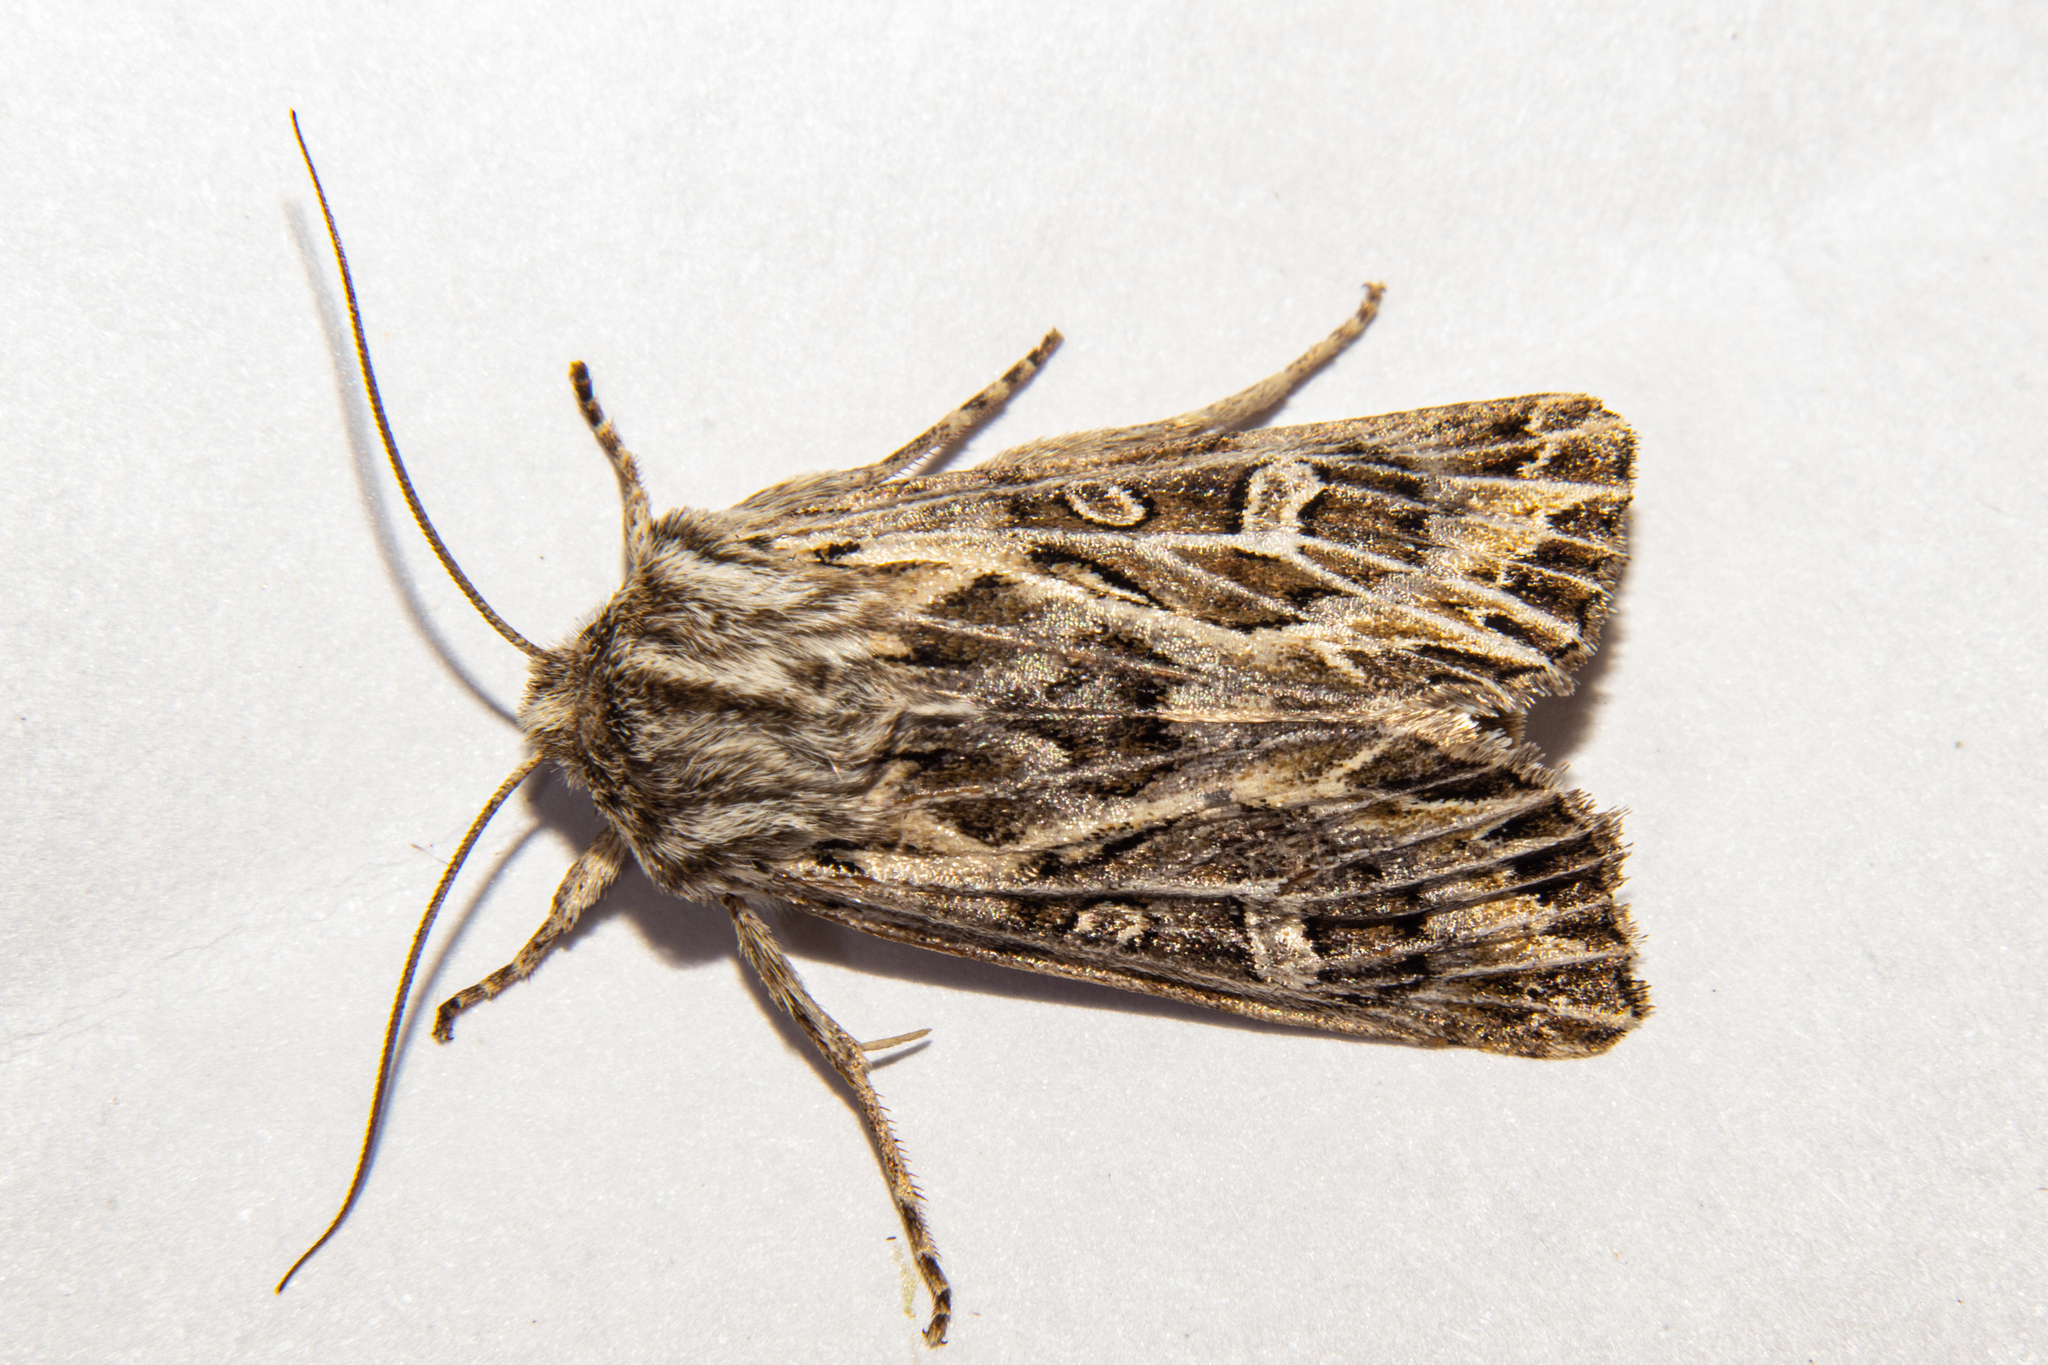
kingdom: Animalia
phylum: Arthropoda
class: Insecta
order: Lepidoptera
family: Noctuidae
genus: Ichneutica
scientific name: Ichneutica
